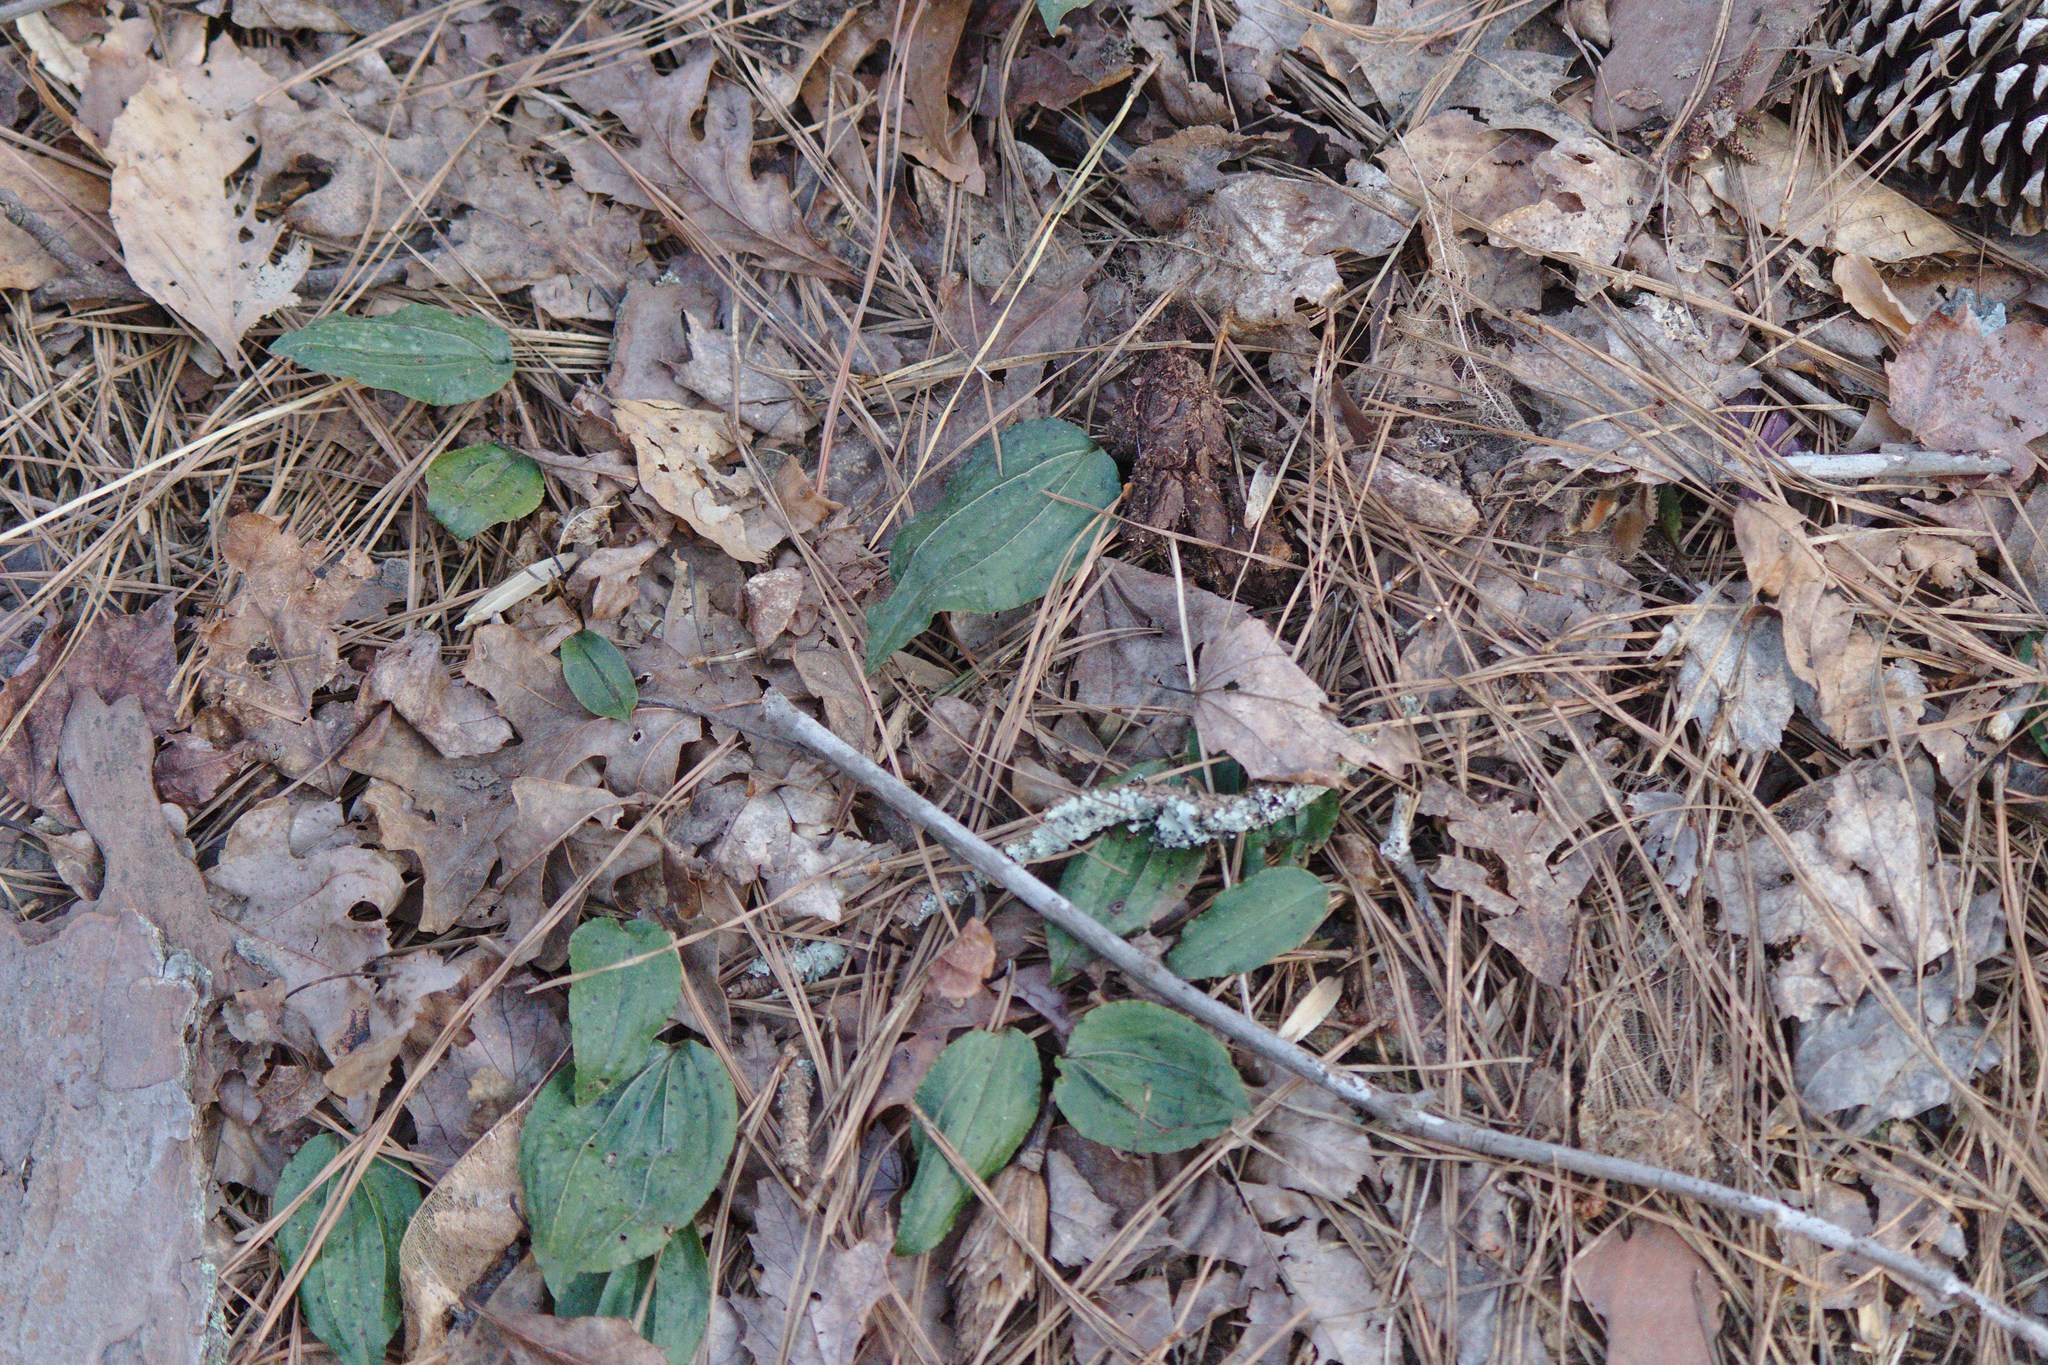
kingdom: Plantae
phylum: Tracheophyta
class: Liliopsida
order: Asparagales
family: Orchidaceae
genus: Tipularia
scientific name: Tipularia discolor
